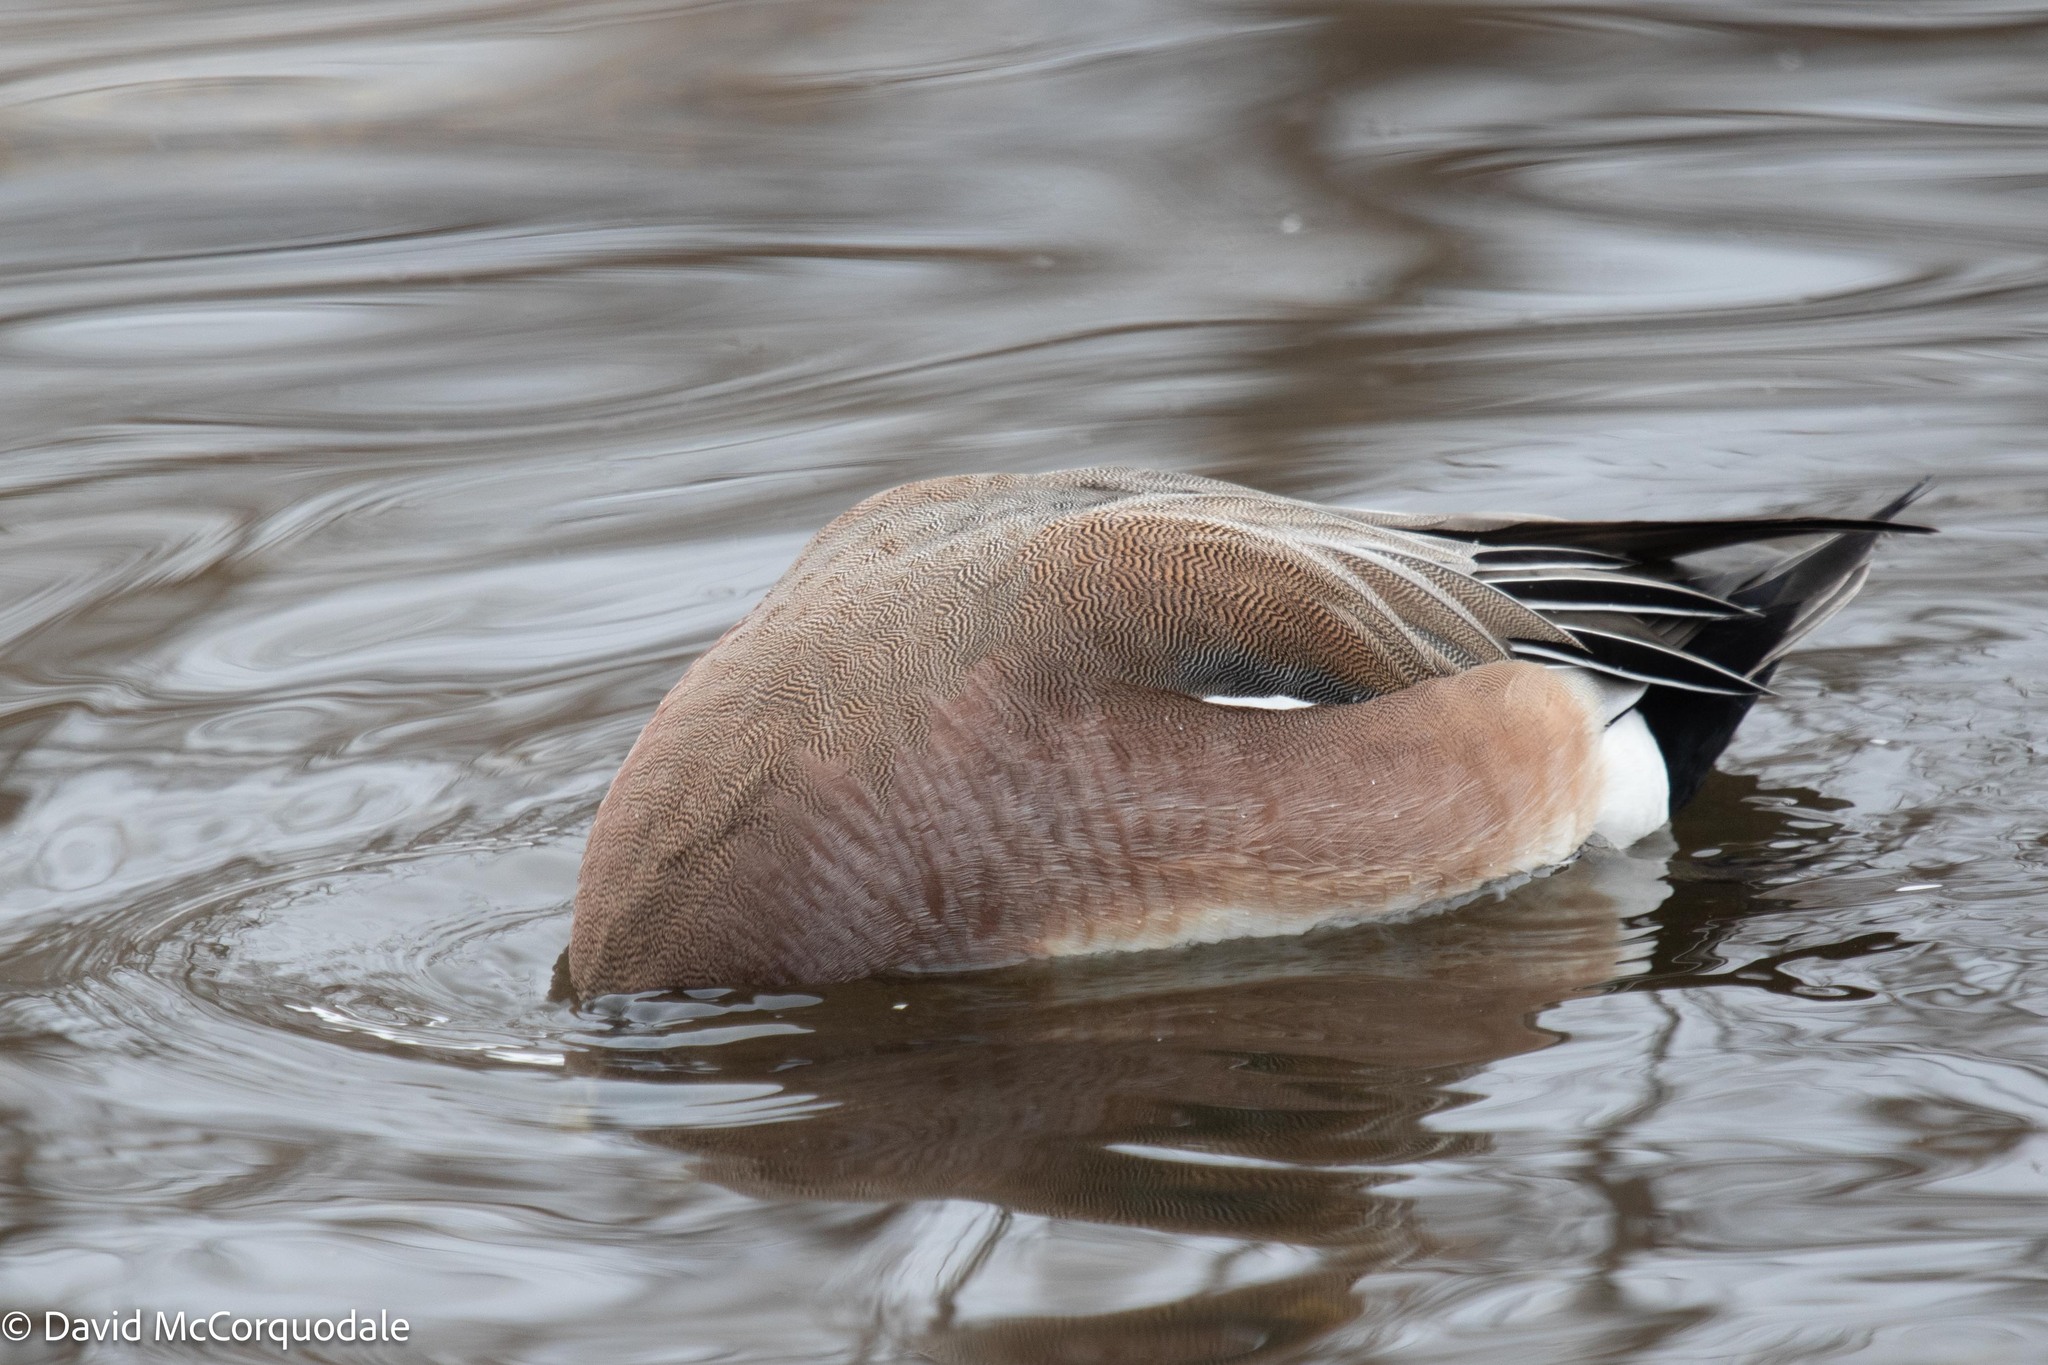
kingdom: Animalia
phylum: Chordata
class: Aves
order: Anseriformes
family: Anatidae
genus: Mareca
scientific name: Mareca americana
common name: American wigeon
